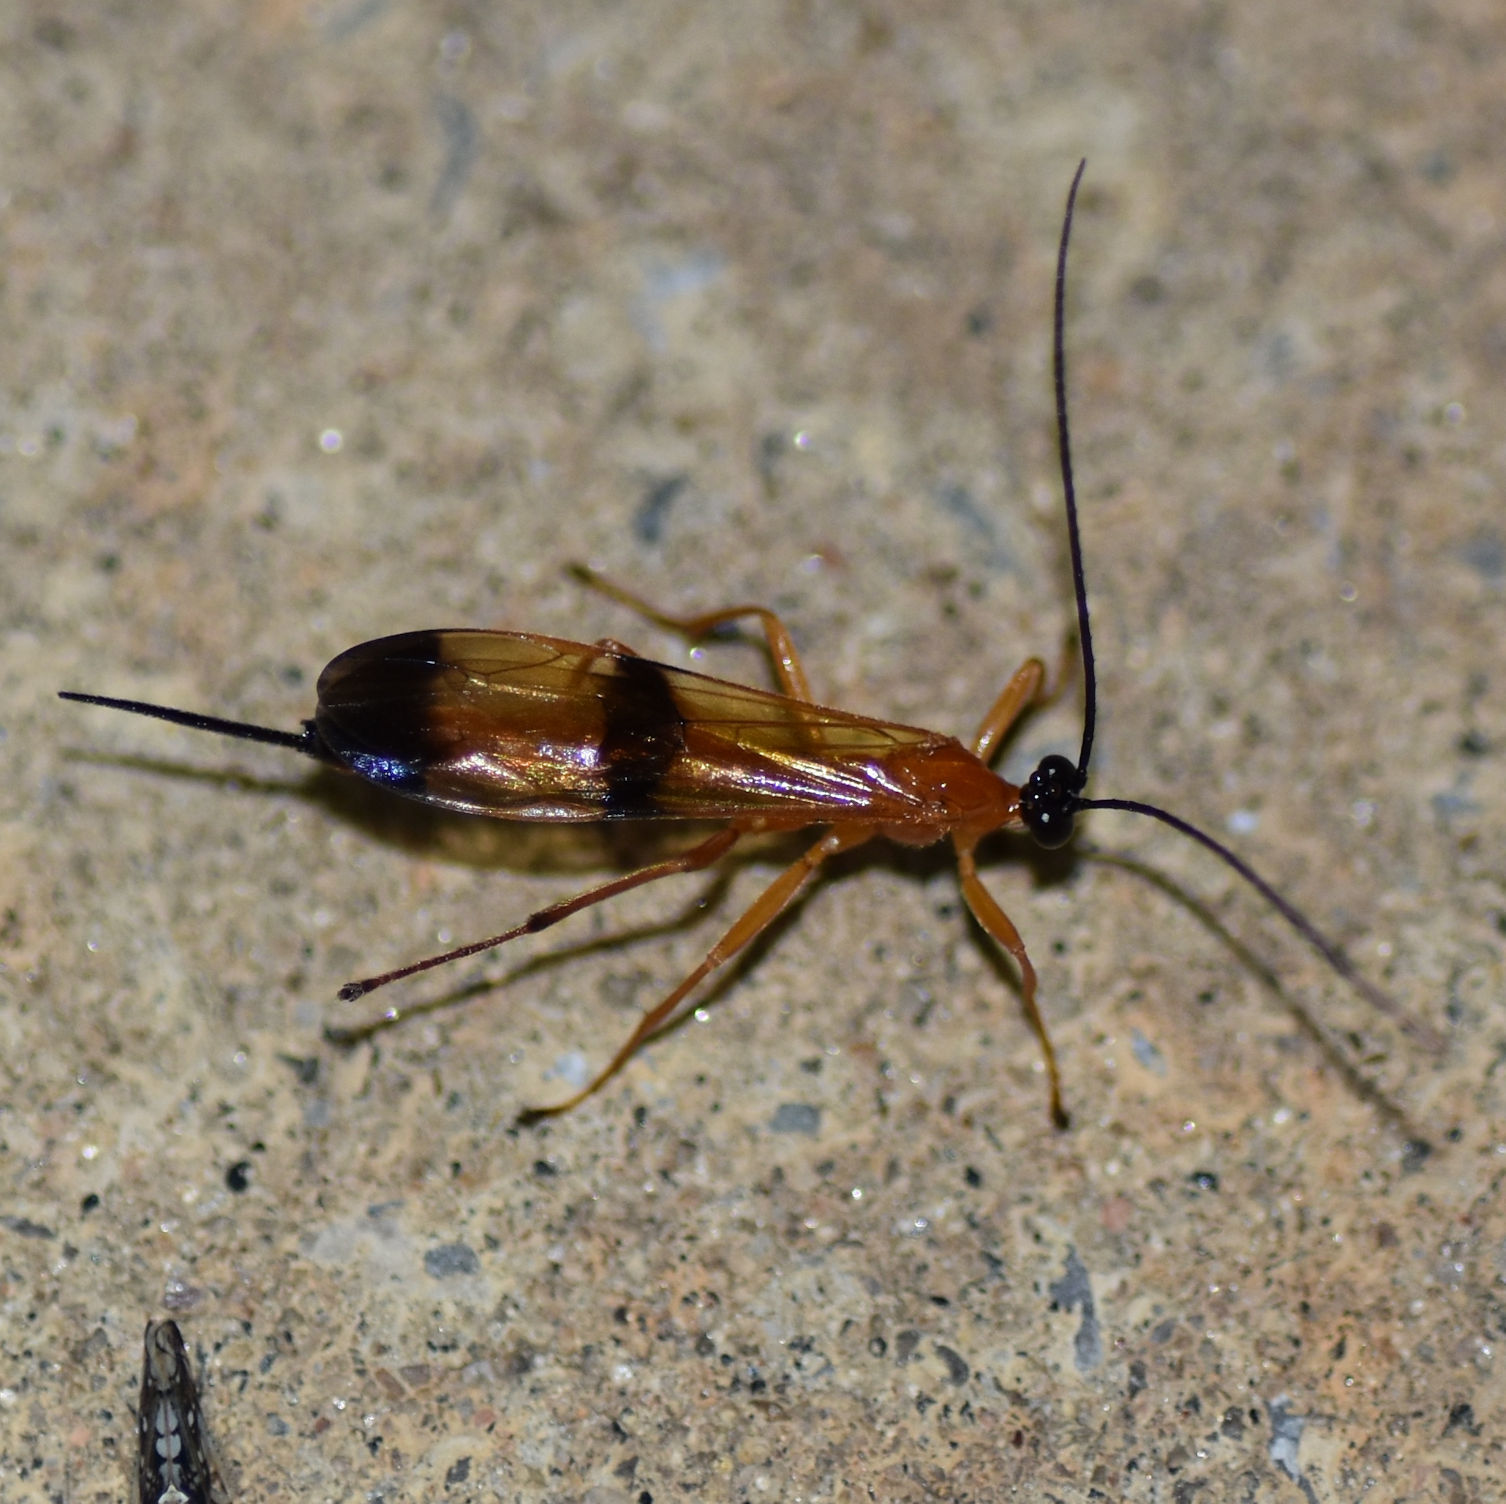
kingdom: Animalia
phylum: Arthropoda
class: Insecta
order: Hymenoptera
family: Ichneumonidae
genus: Acrotaphus
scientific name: Acrotaphus wiltii
